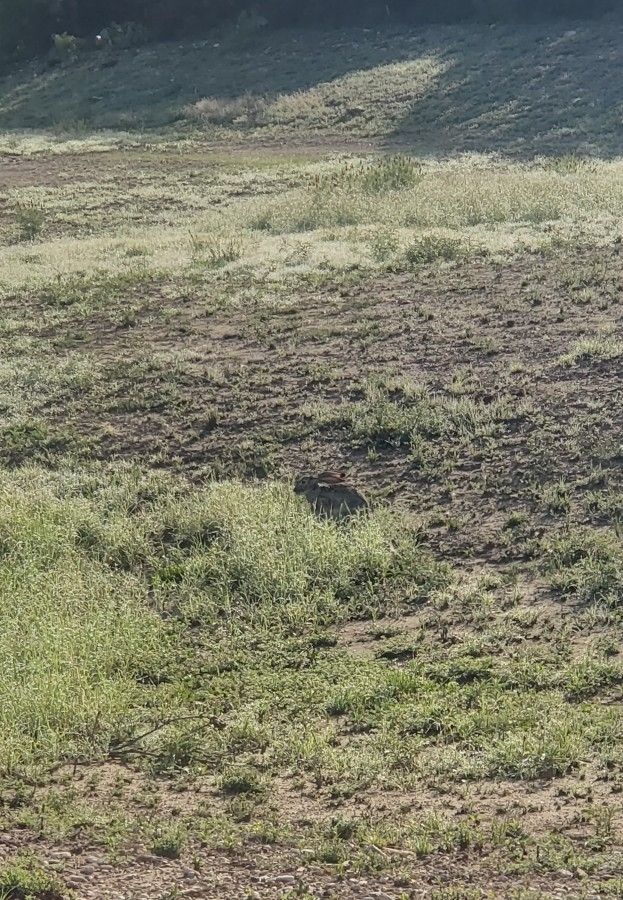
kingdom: Animalia
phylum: Chordata
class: Mammalia
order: Lagomorpha
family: Leporidae
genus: Lepus
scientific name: Lepus californicus
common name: Black-tailed jackrabbit
